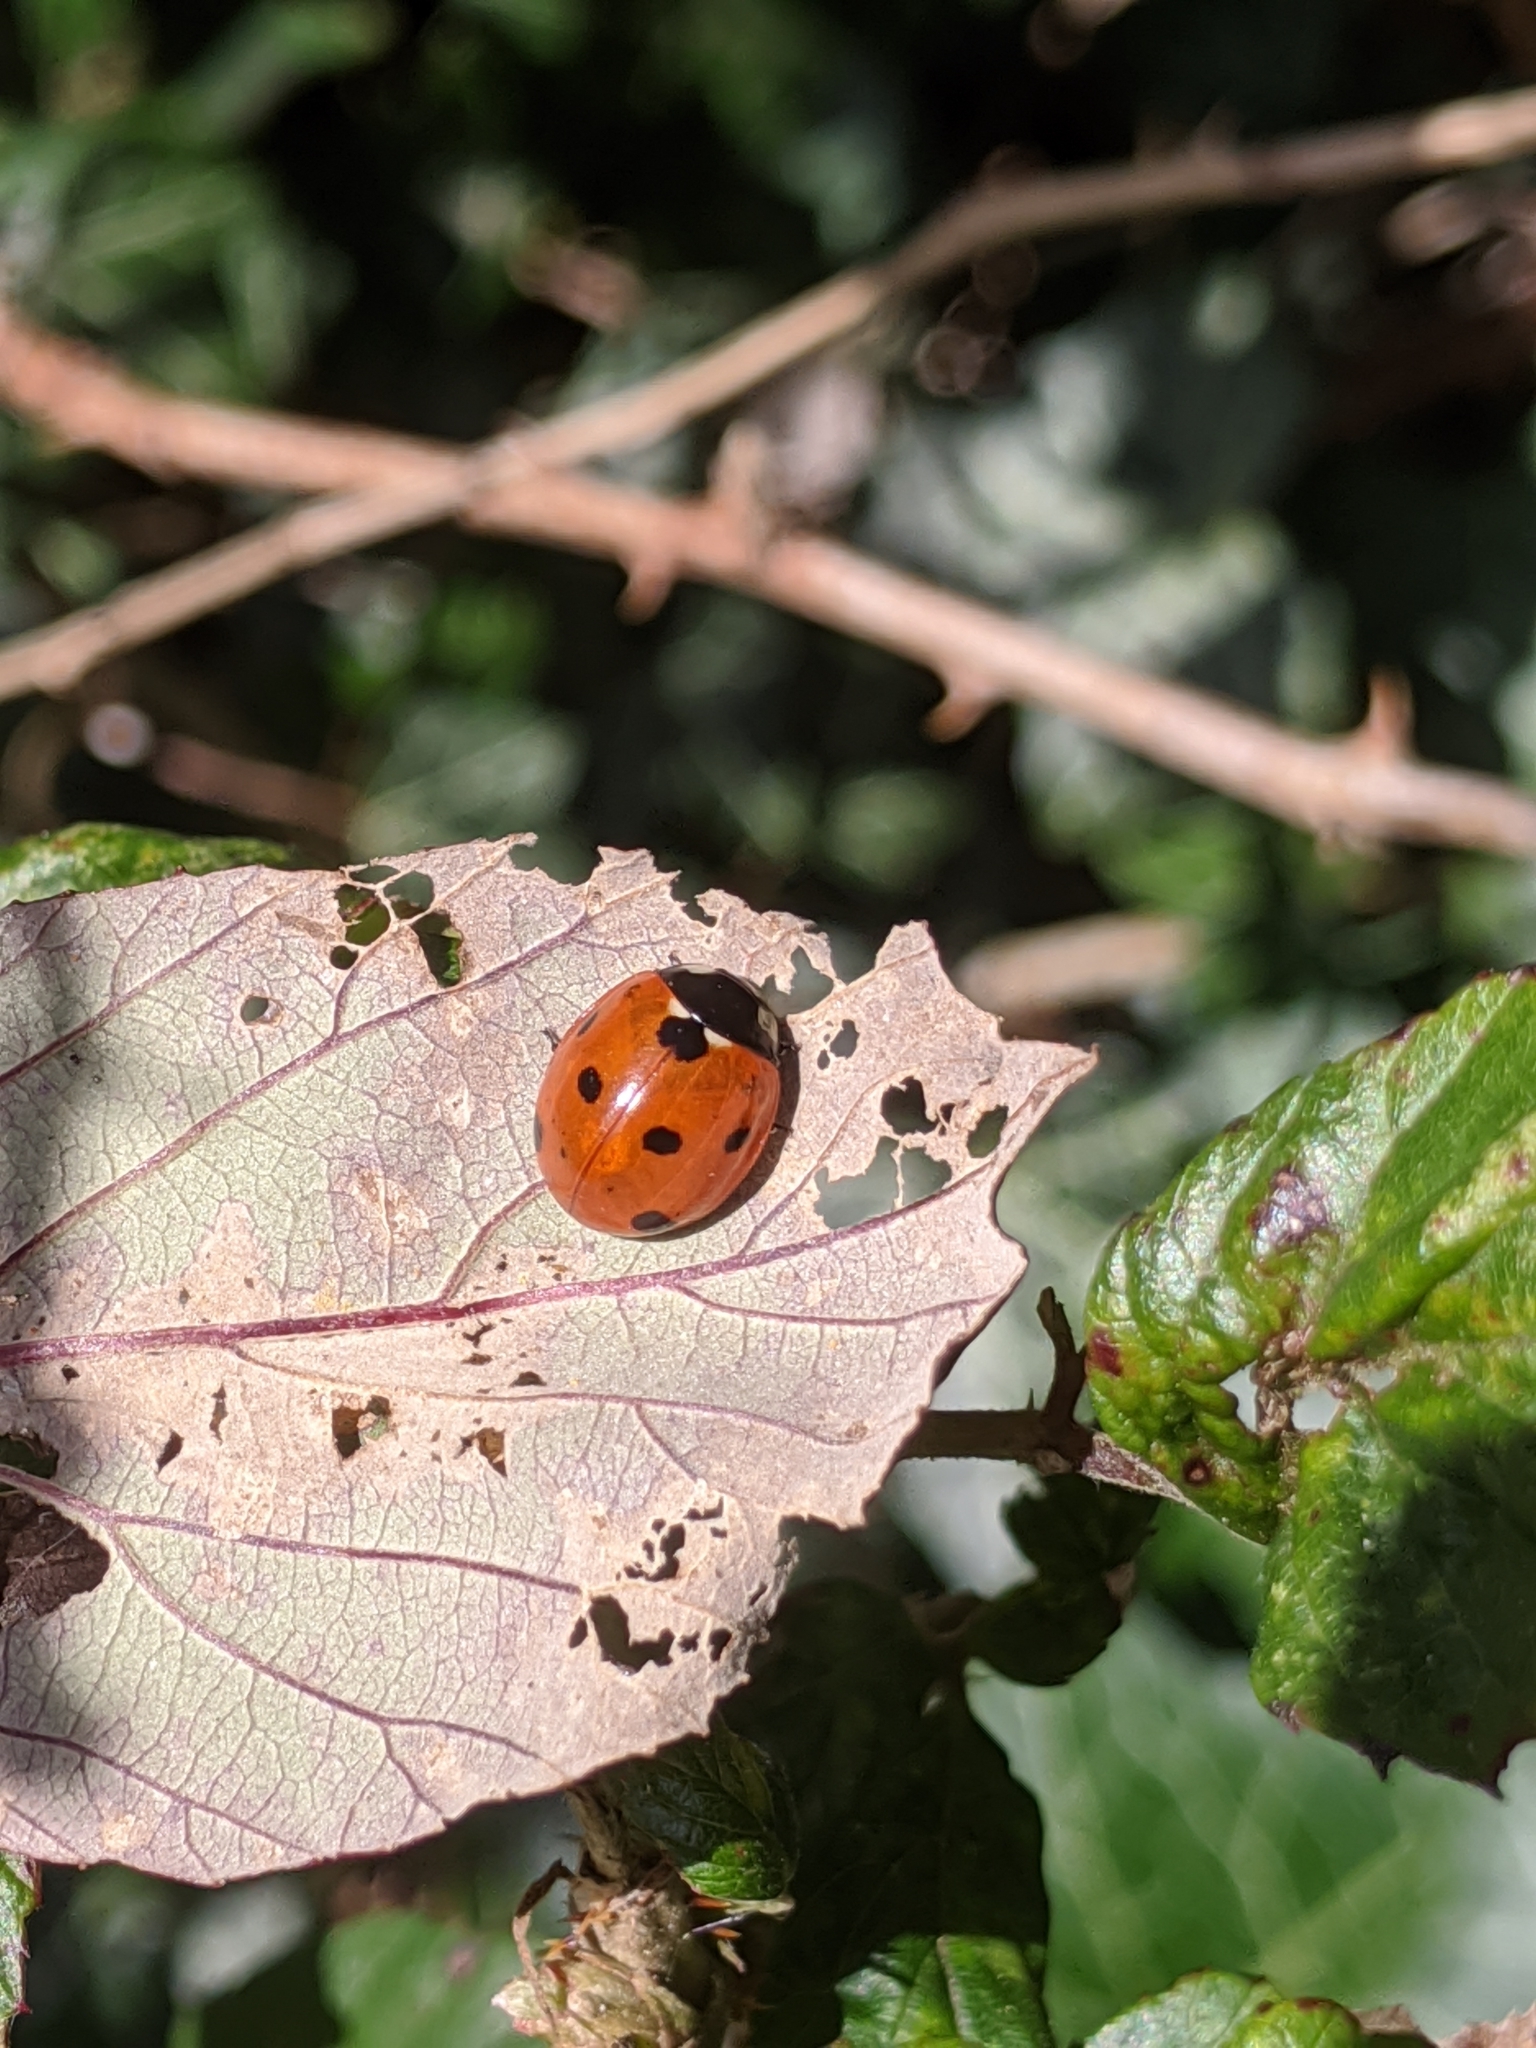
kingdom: Animalia
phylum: Arthropoda
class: Insecta
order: Coleoptera
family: Coccinellidae
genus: Coccinella
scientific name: Coccinella septempunctata
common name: Sevenspotted lady beetle
